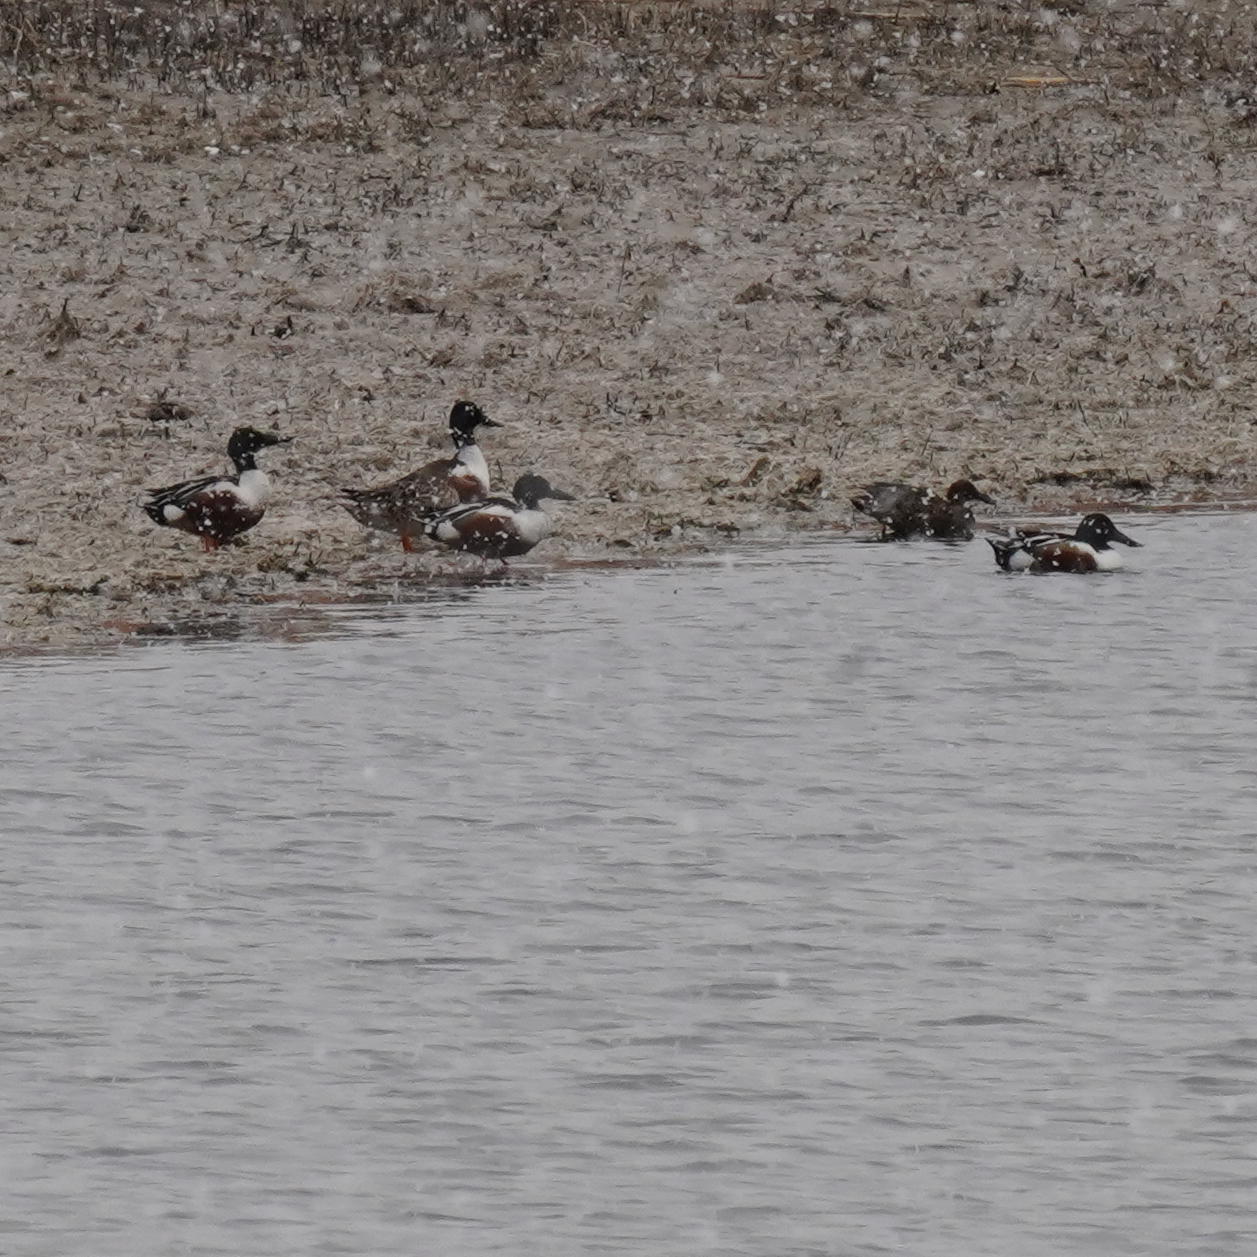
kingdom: Animalia
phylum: Chordata
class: Aves
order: Anseriformes
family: Anatidae
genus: Spatula
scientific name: Spatula clypeata
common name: Northern shoveler
